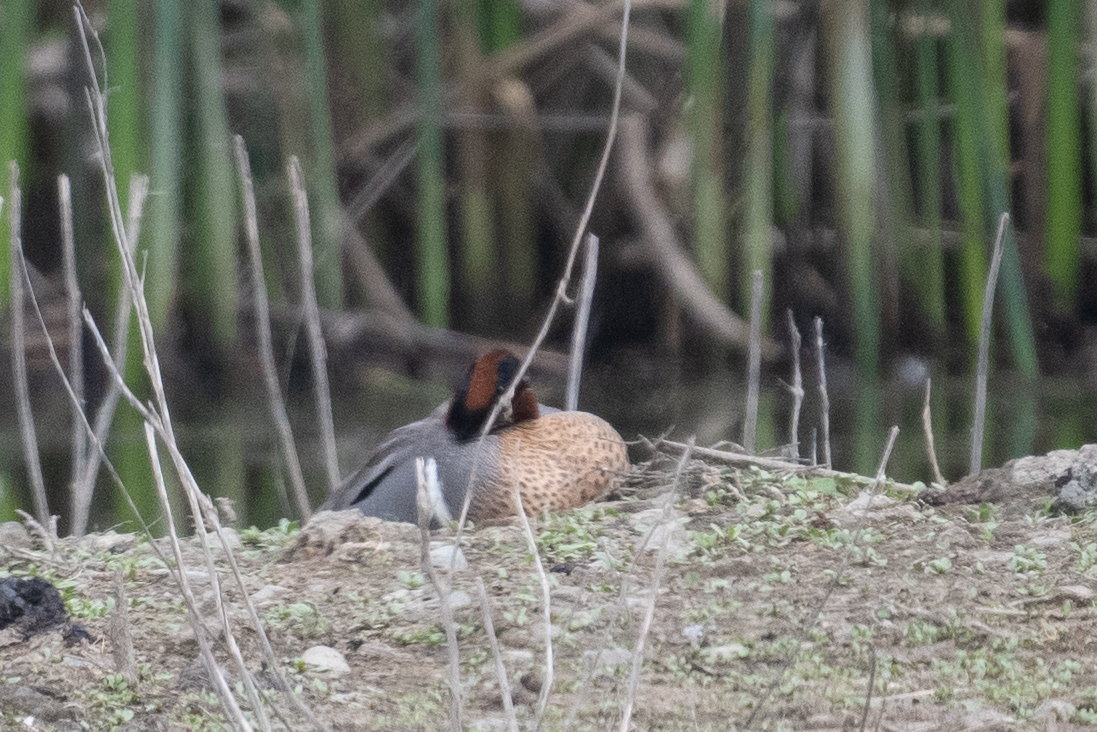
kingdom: Animalia
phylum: Chordata
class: Aves
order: Anseriformes
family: Anatidae
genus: Anas
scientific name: Anas crecca
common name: Eurasian teal
